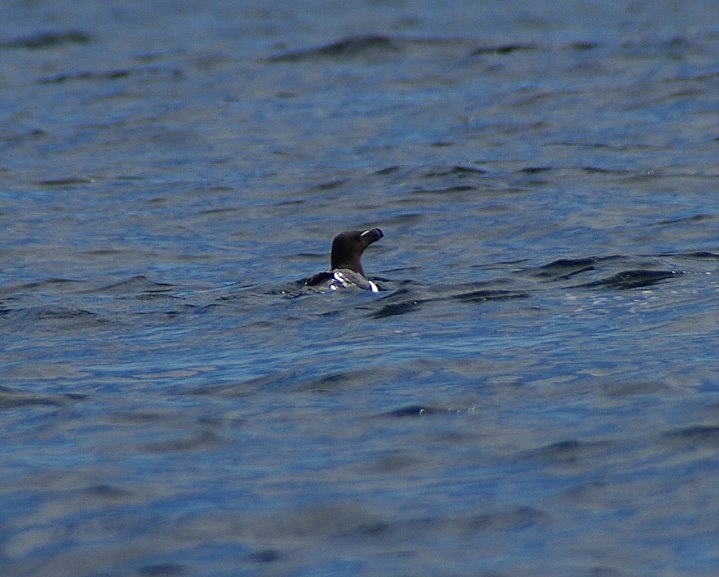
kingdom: Animalia
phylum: Chordata
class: Aves
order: Charadriiformes
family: Alcidae
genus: Alca
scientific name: Alca torda
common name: Razorbill
